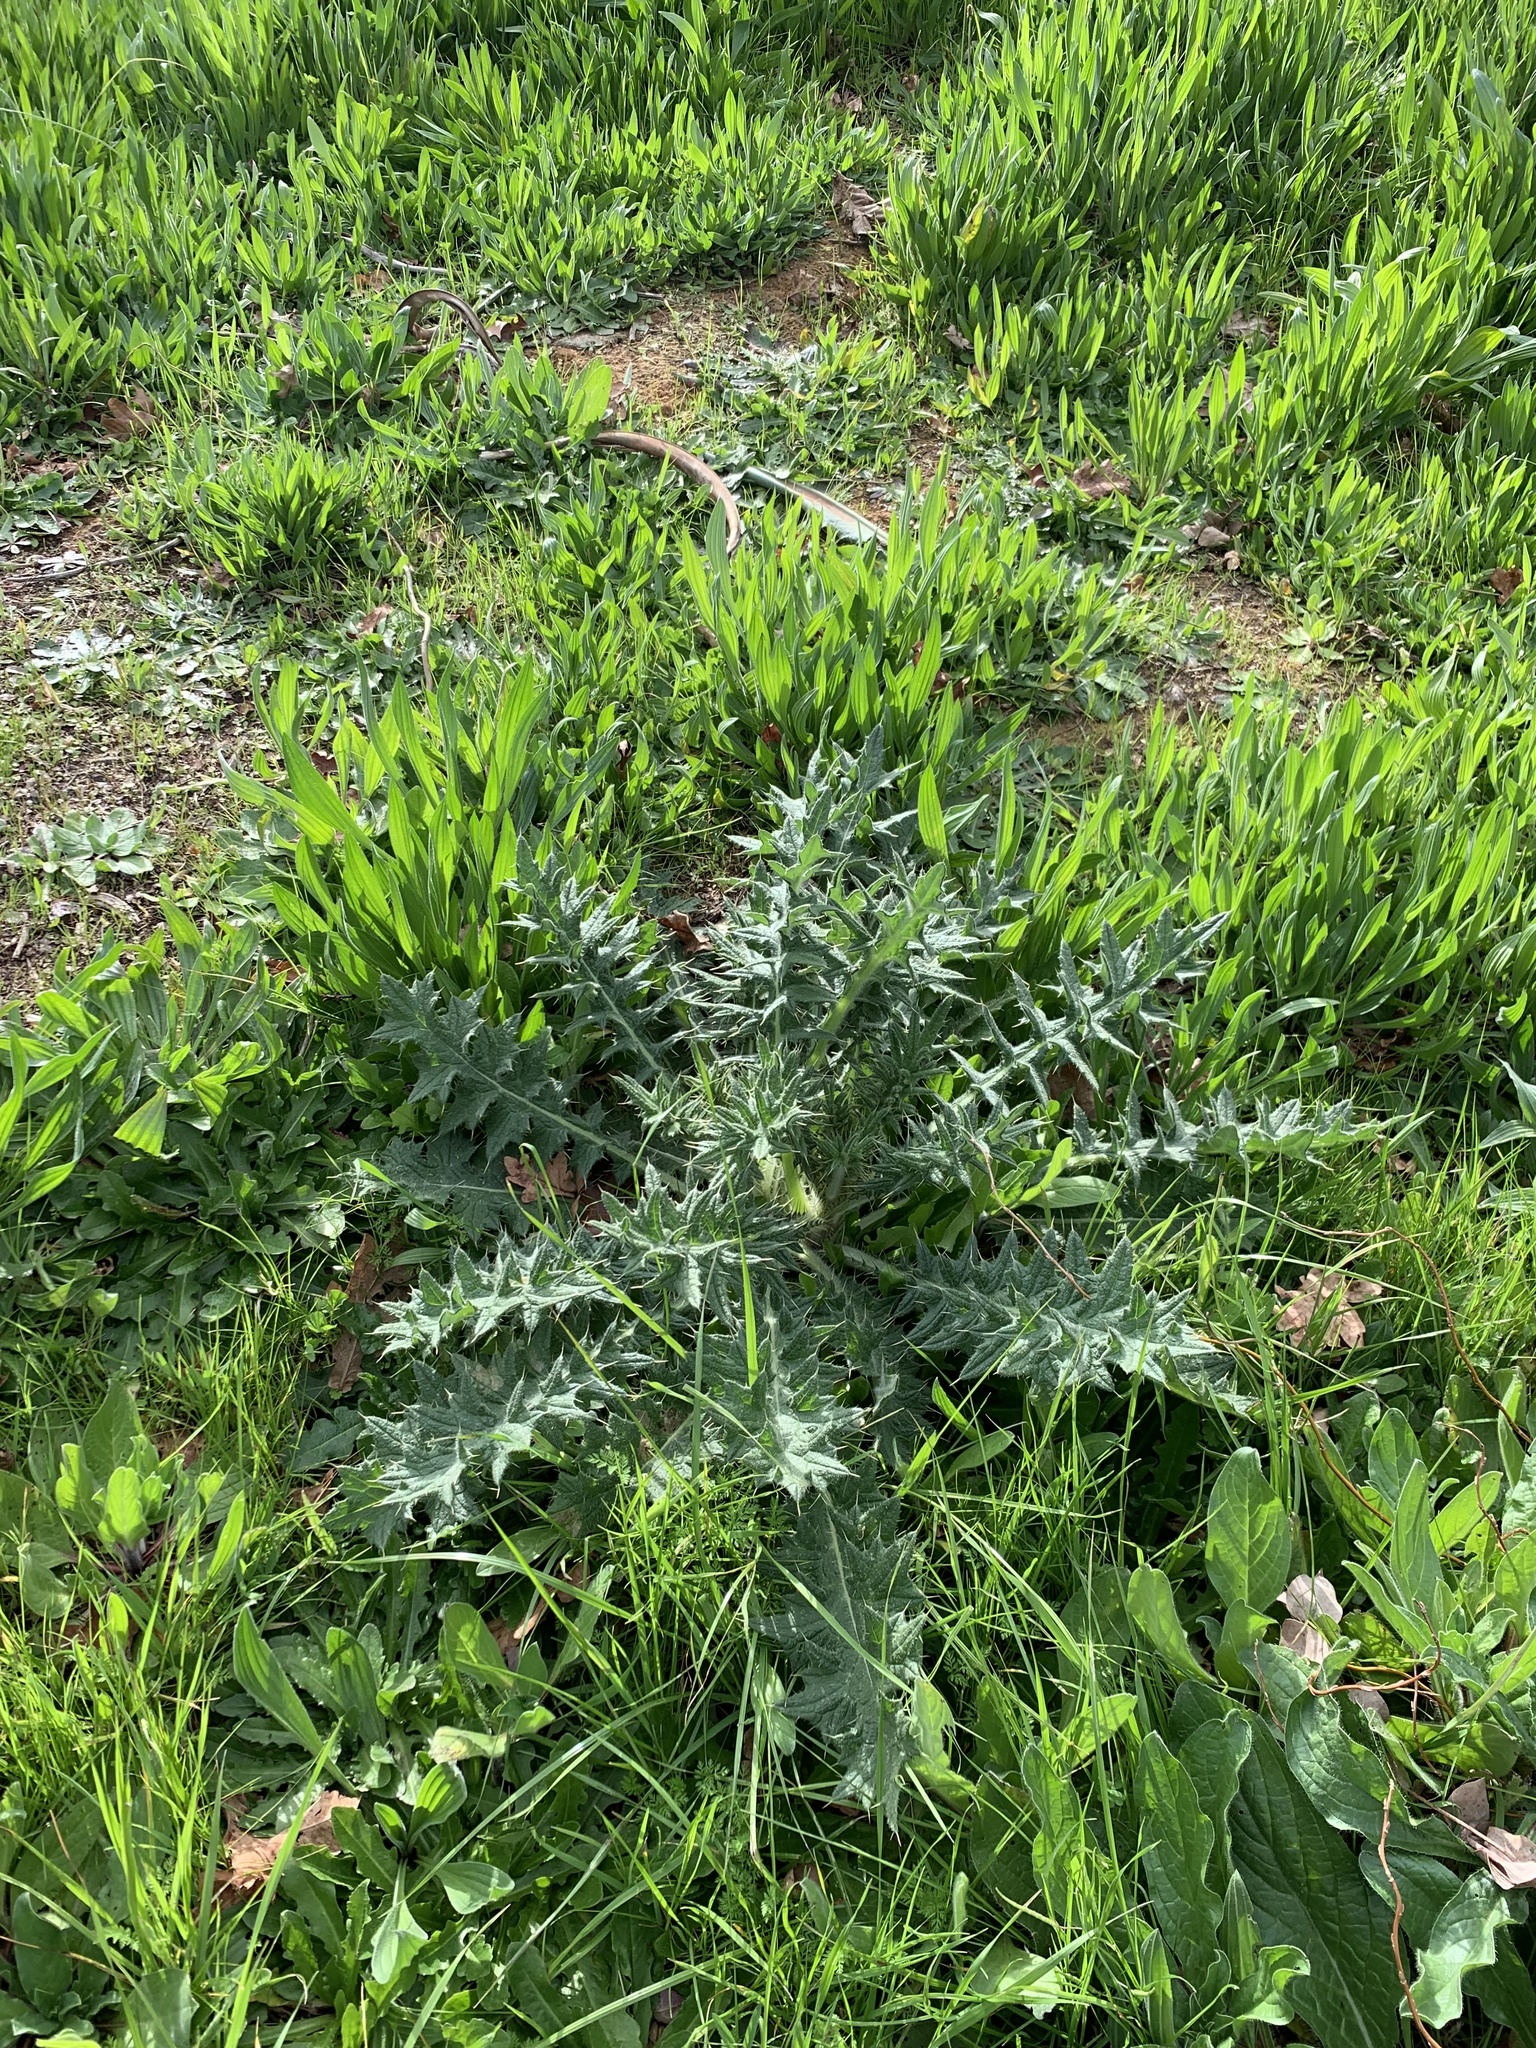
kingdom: Plantae
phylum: Tracheophyta
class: Magnoliopsida
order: Asterales
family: Asteraceae
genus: Cirsium
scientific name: Cirsium vulgare
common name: Bull thistle
